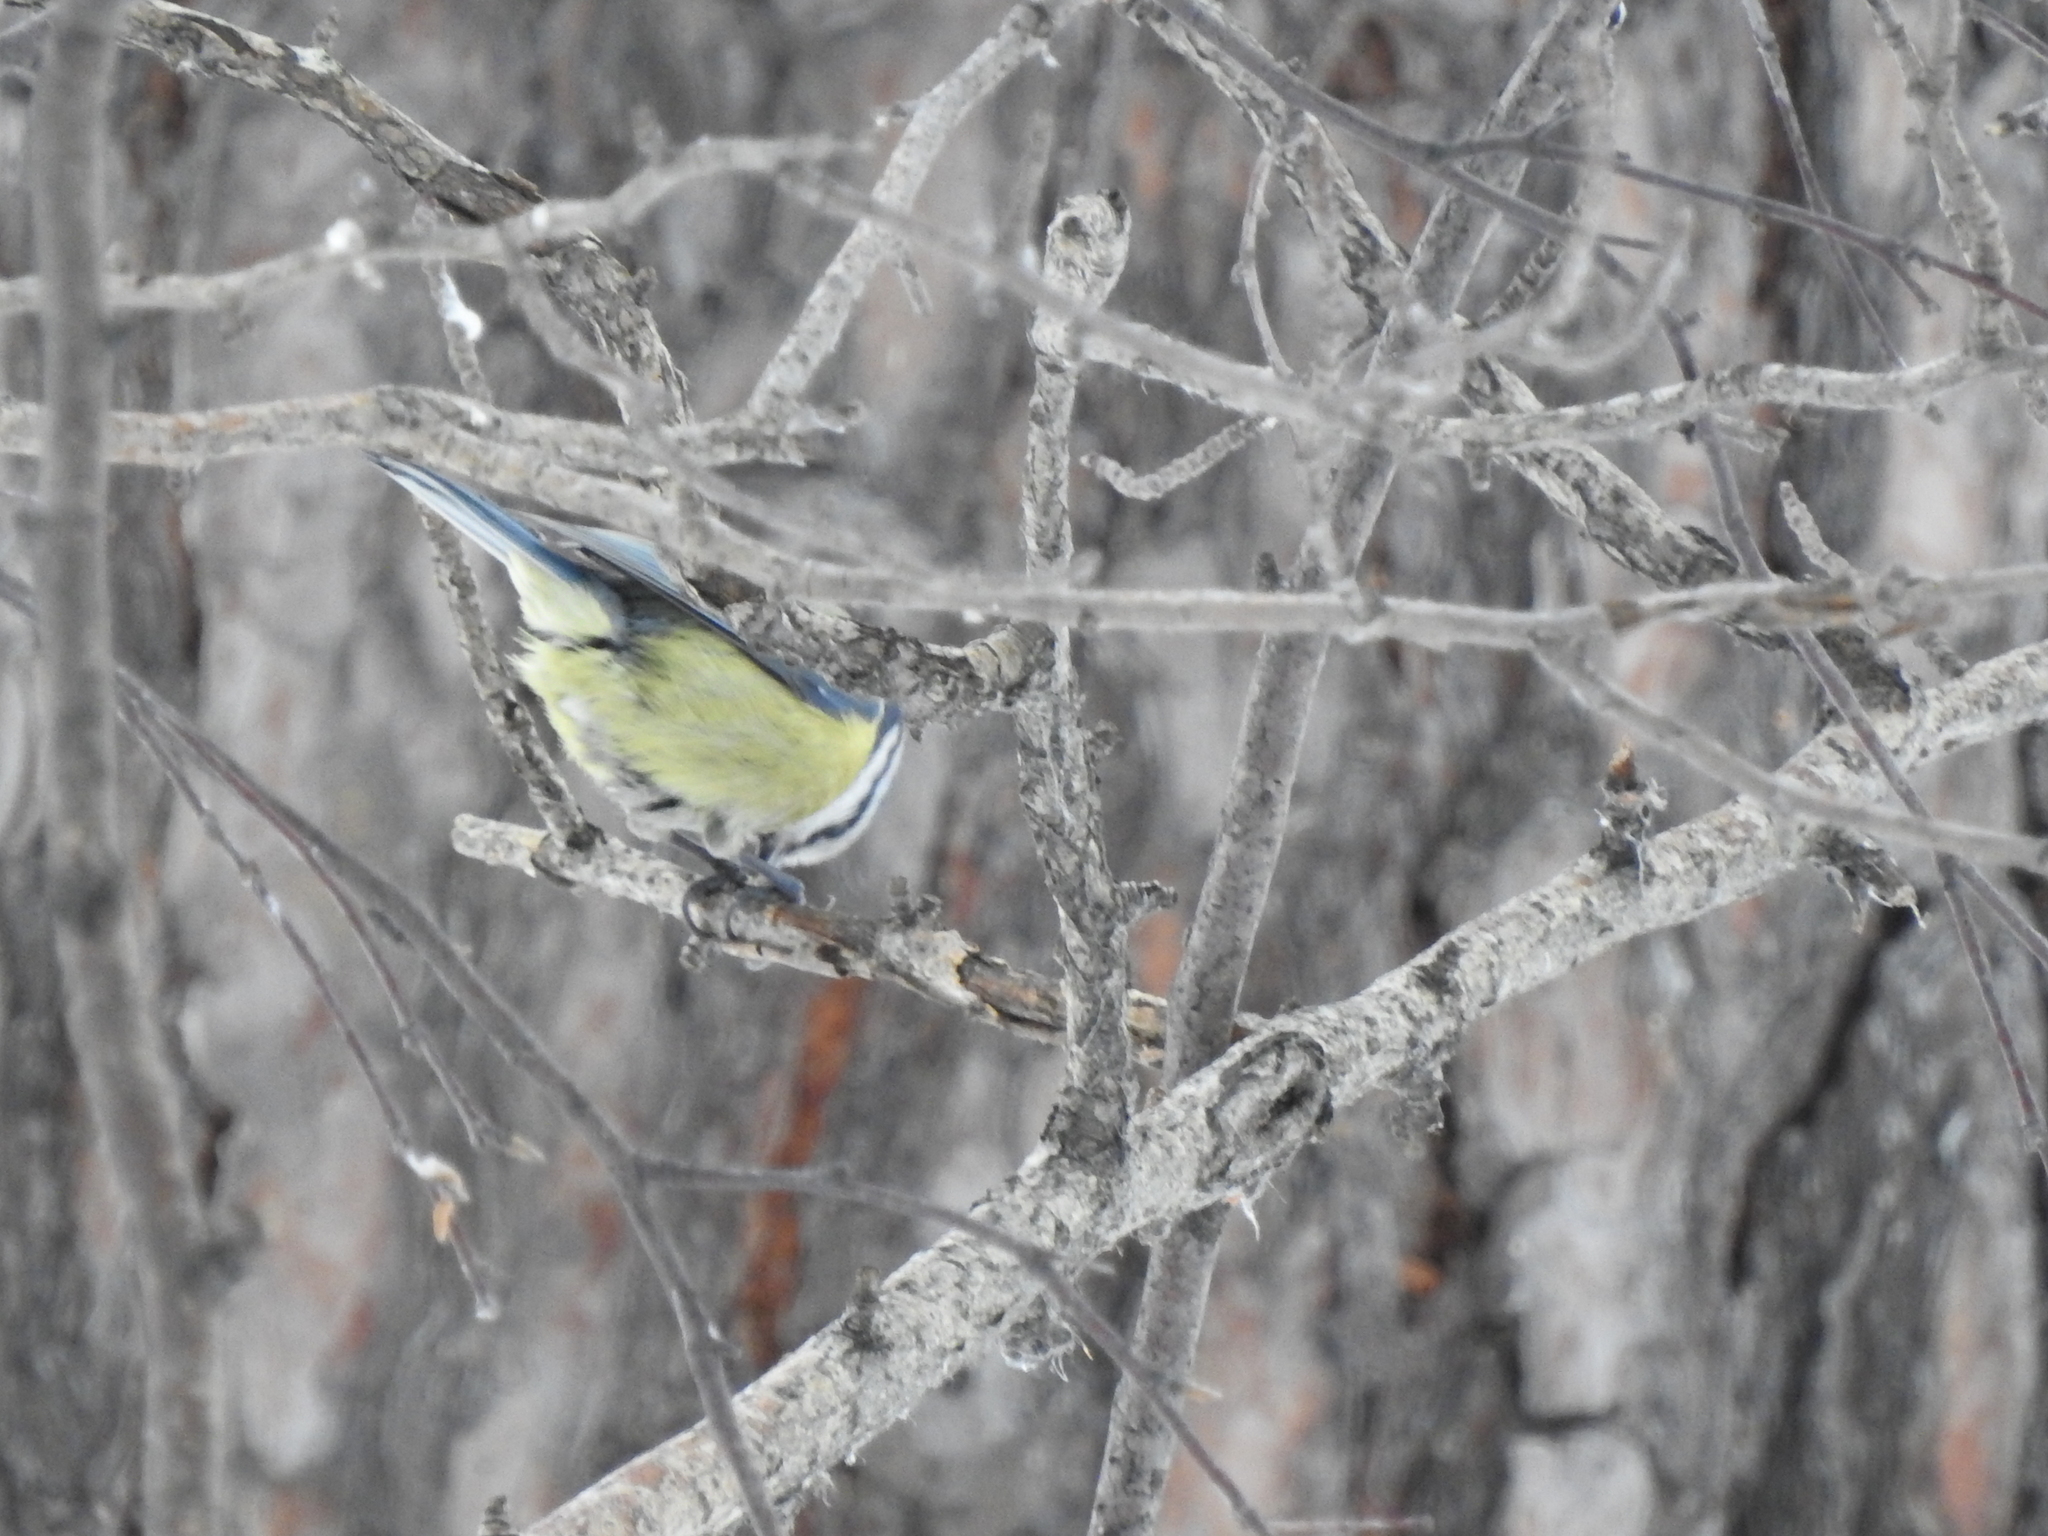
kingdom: Animalia
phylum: Chordata
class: Aves
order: Passeriformes
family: Paridae
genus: Cyanistes
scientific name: Cyanistes caeruleus
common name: Eurasian blue tit
